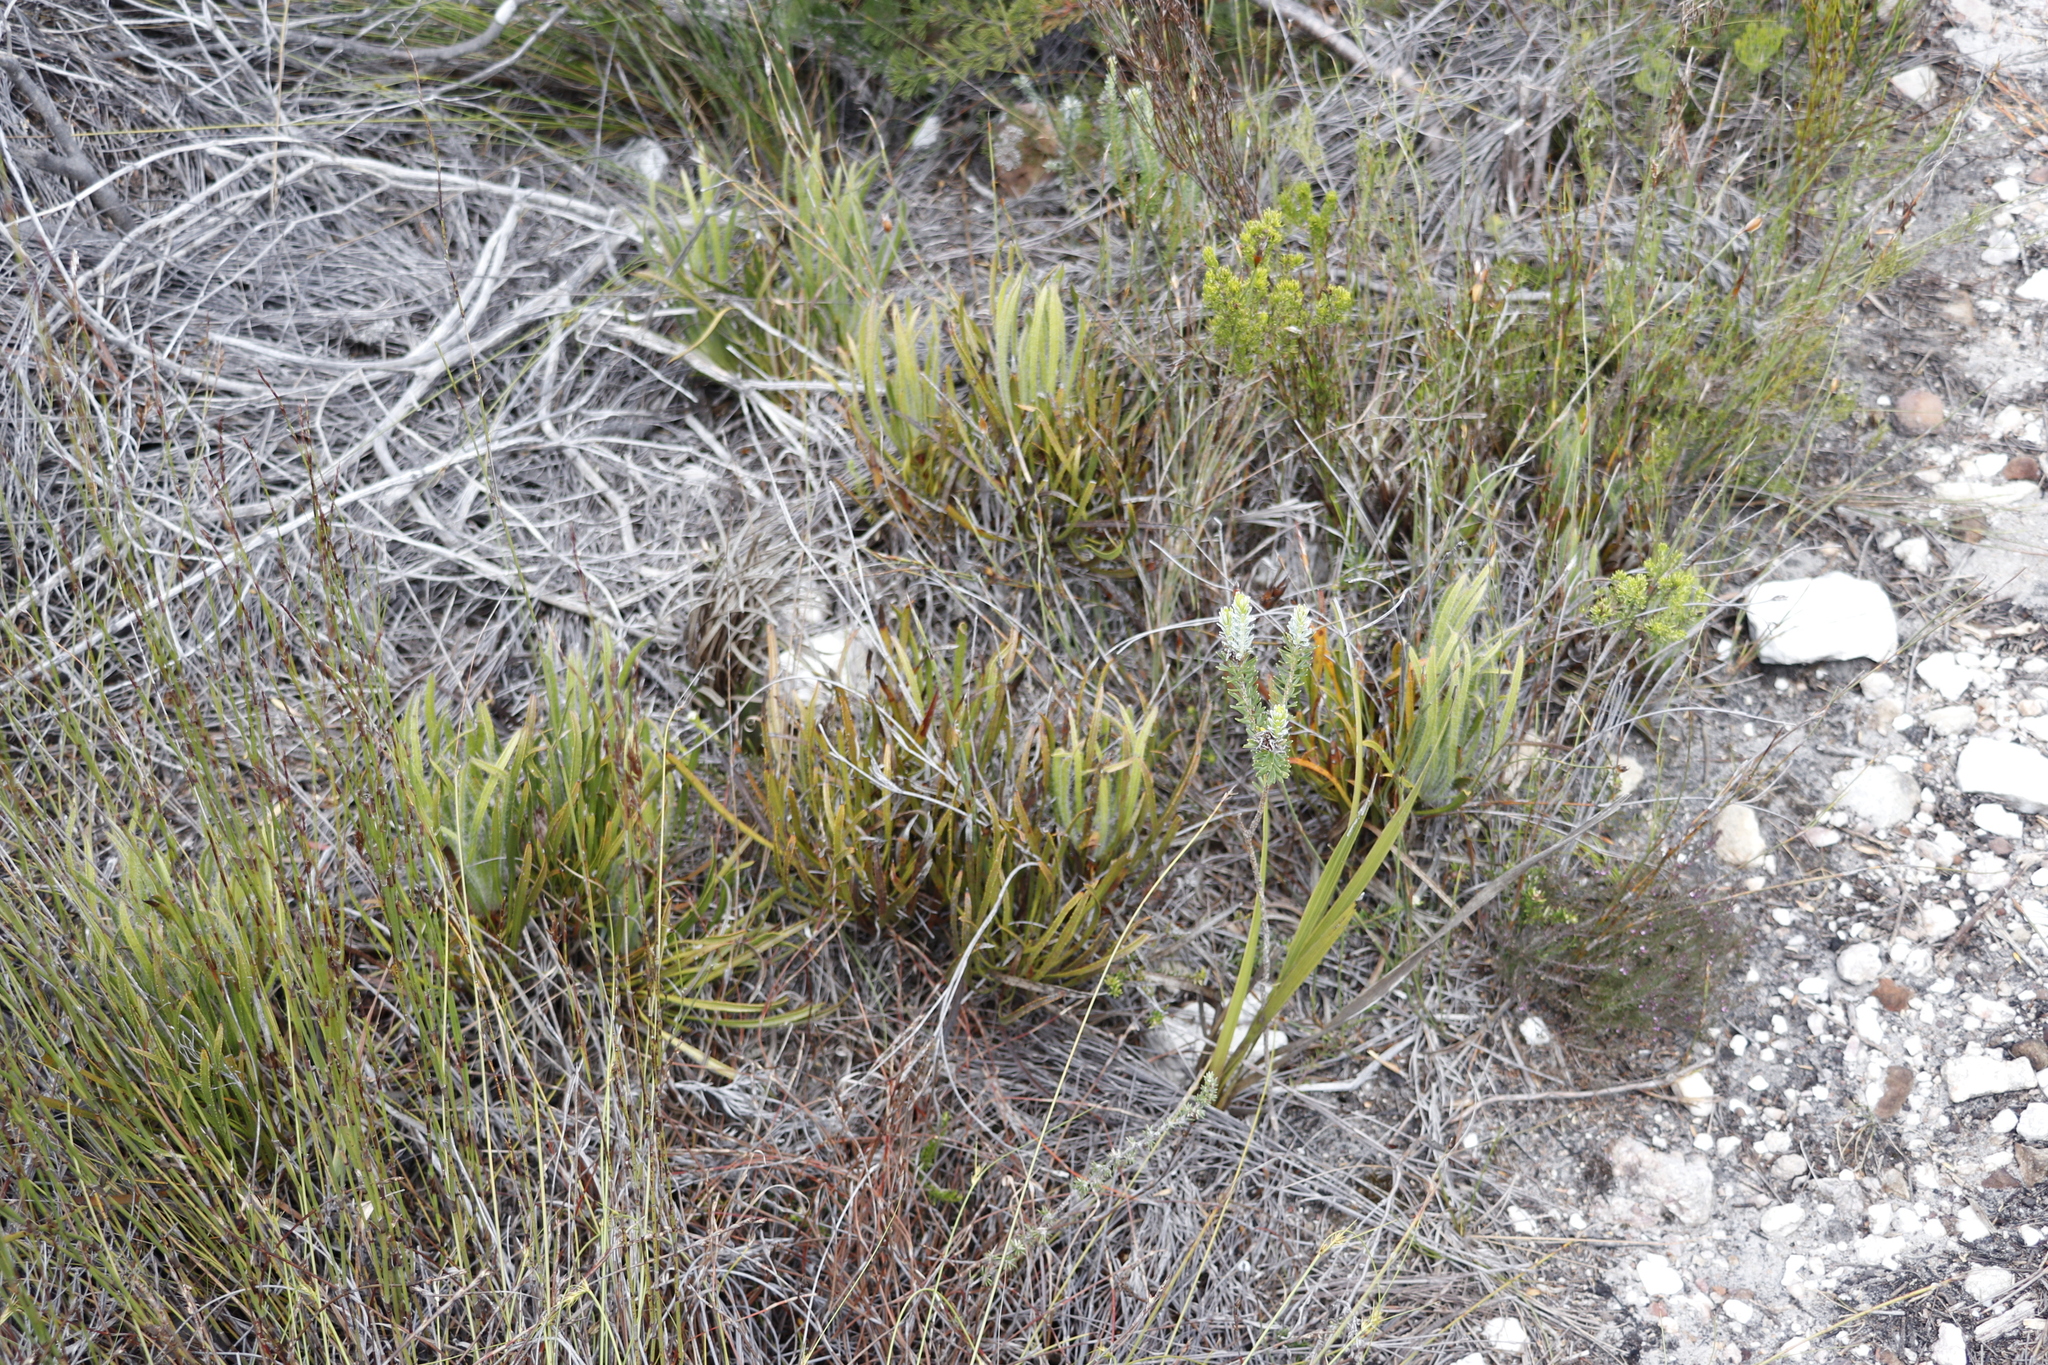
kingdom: Plantae
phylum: Tracheophyta
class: Magnoliopsida
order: Proteales
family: Proteaceae
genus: Protea
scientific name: Protea denticulata
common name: Tooth-leaf sugarbush
